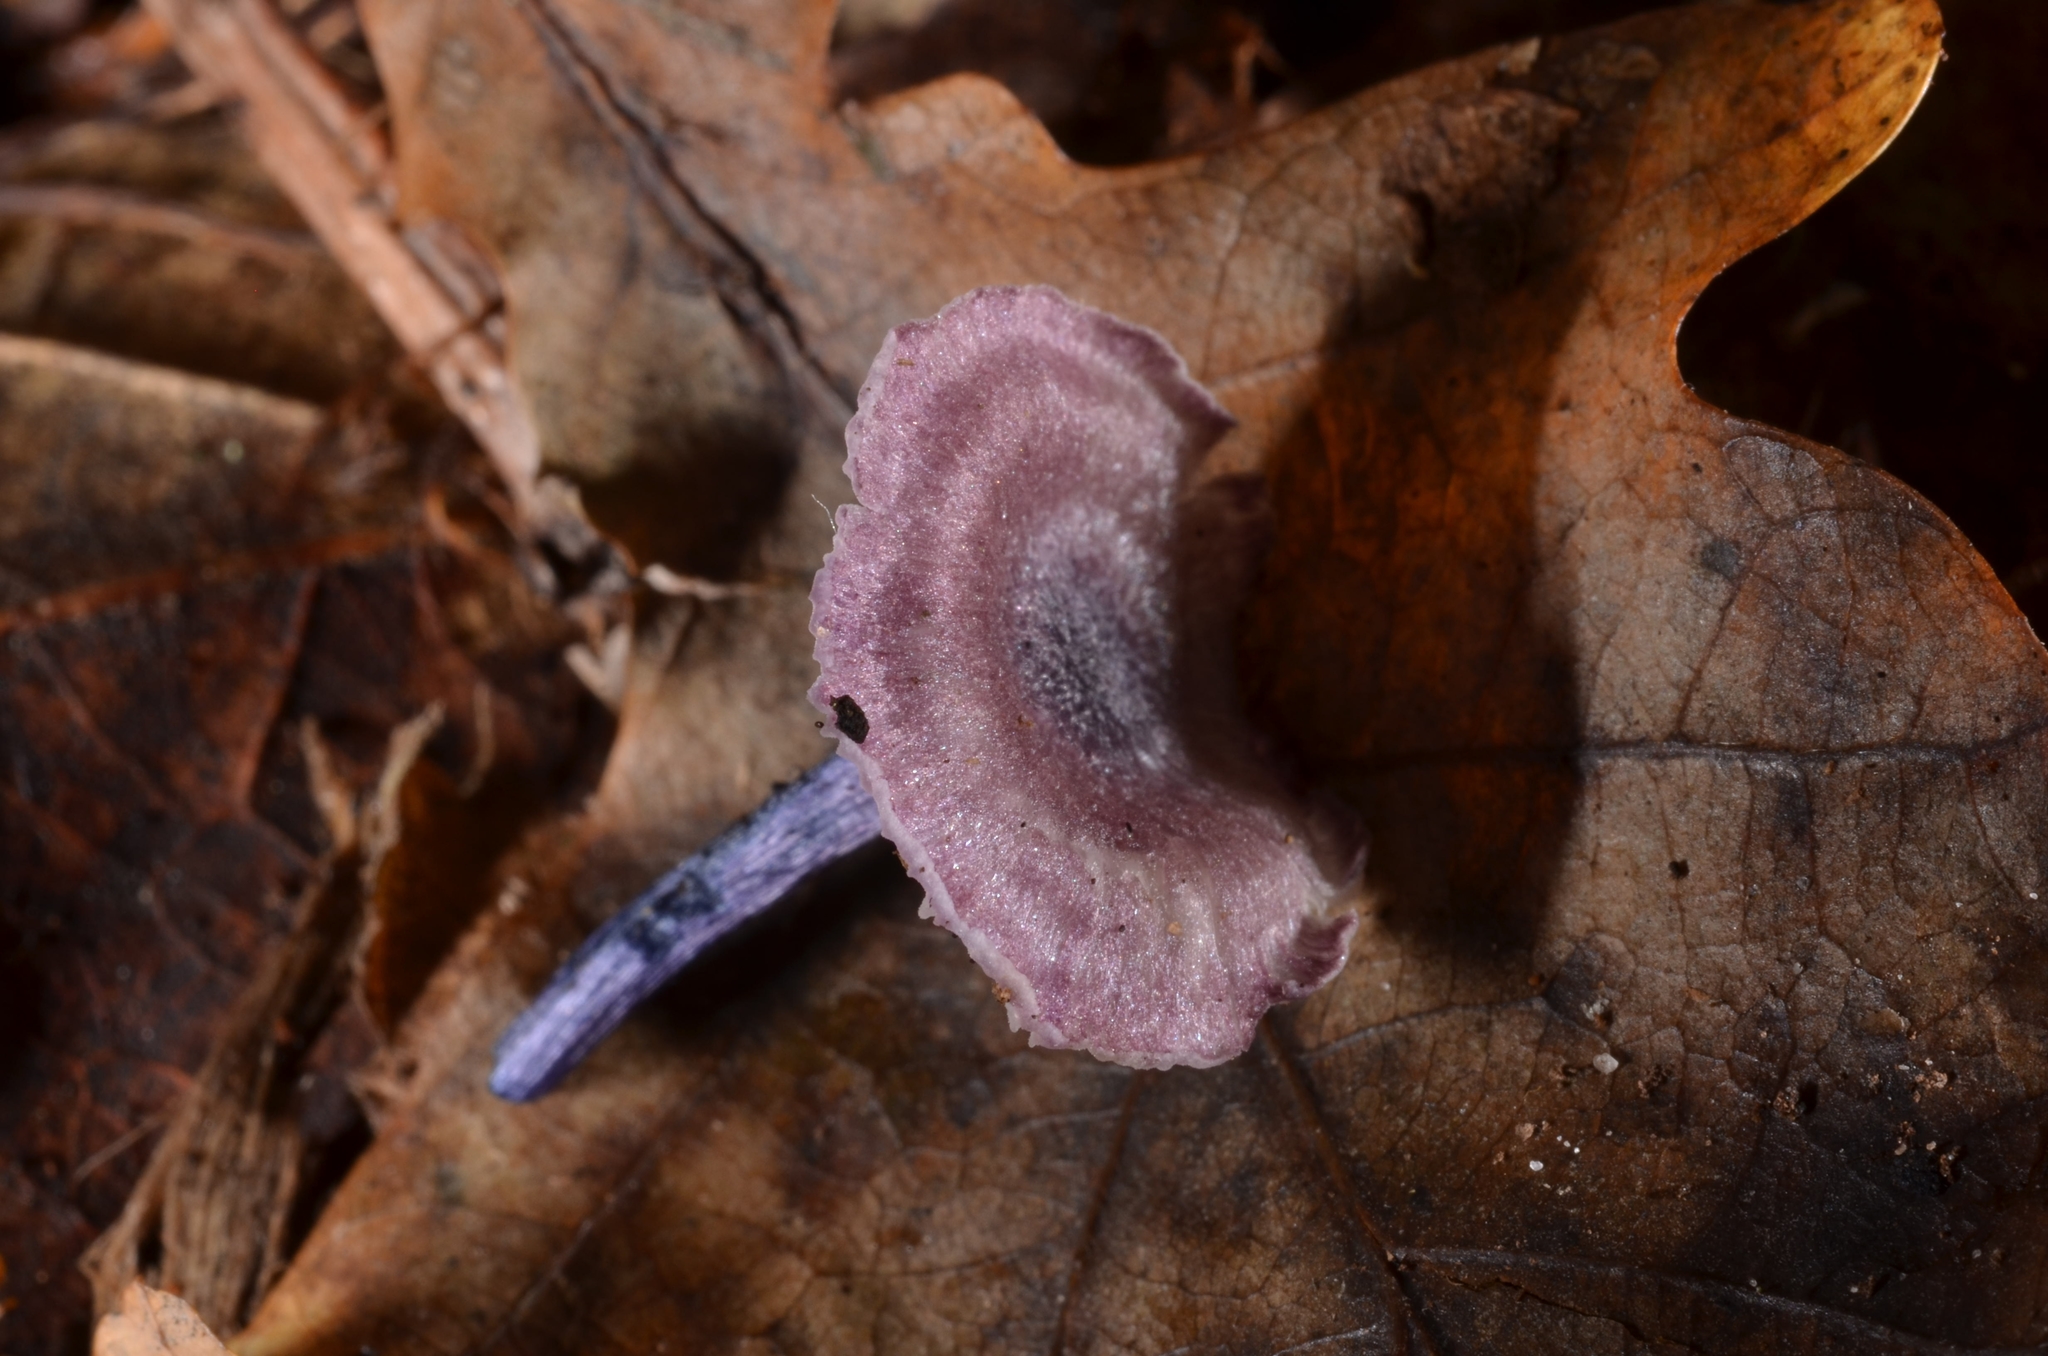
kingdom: Fungi
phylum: Basidiomycota
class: Agaricomycetes
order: Agaricales
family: Entolomataceae
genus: Entoloma
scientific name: Entoloma callichroum
